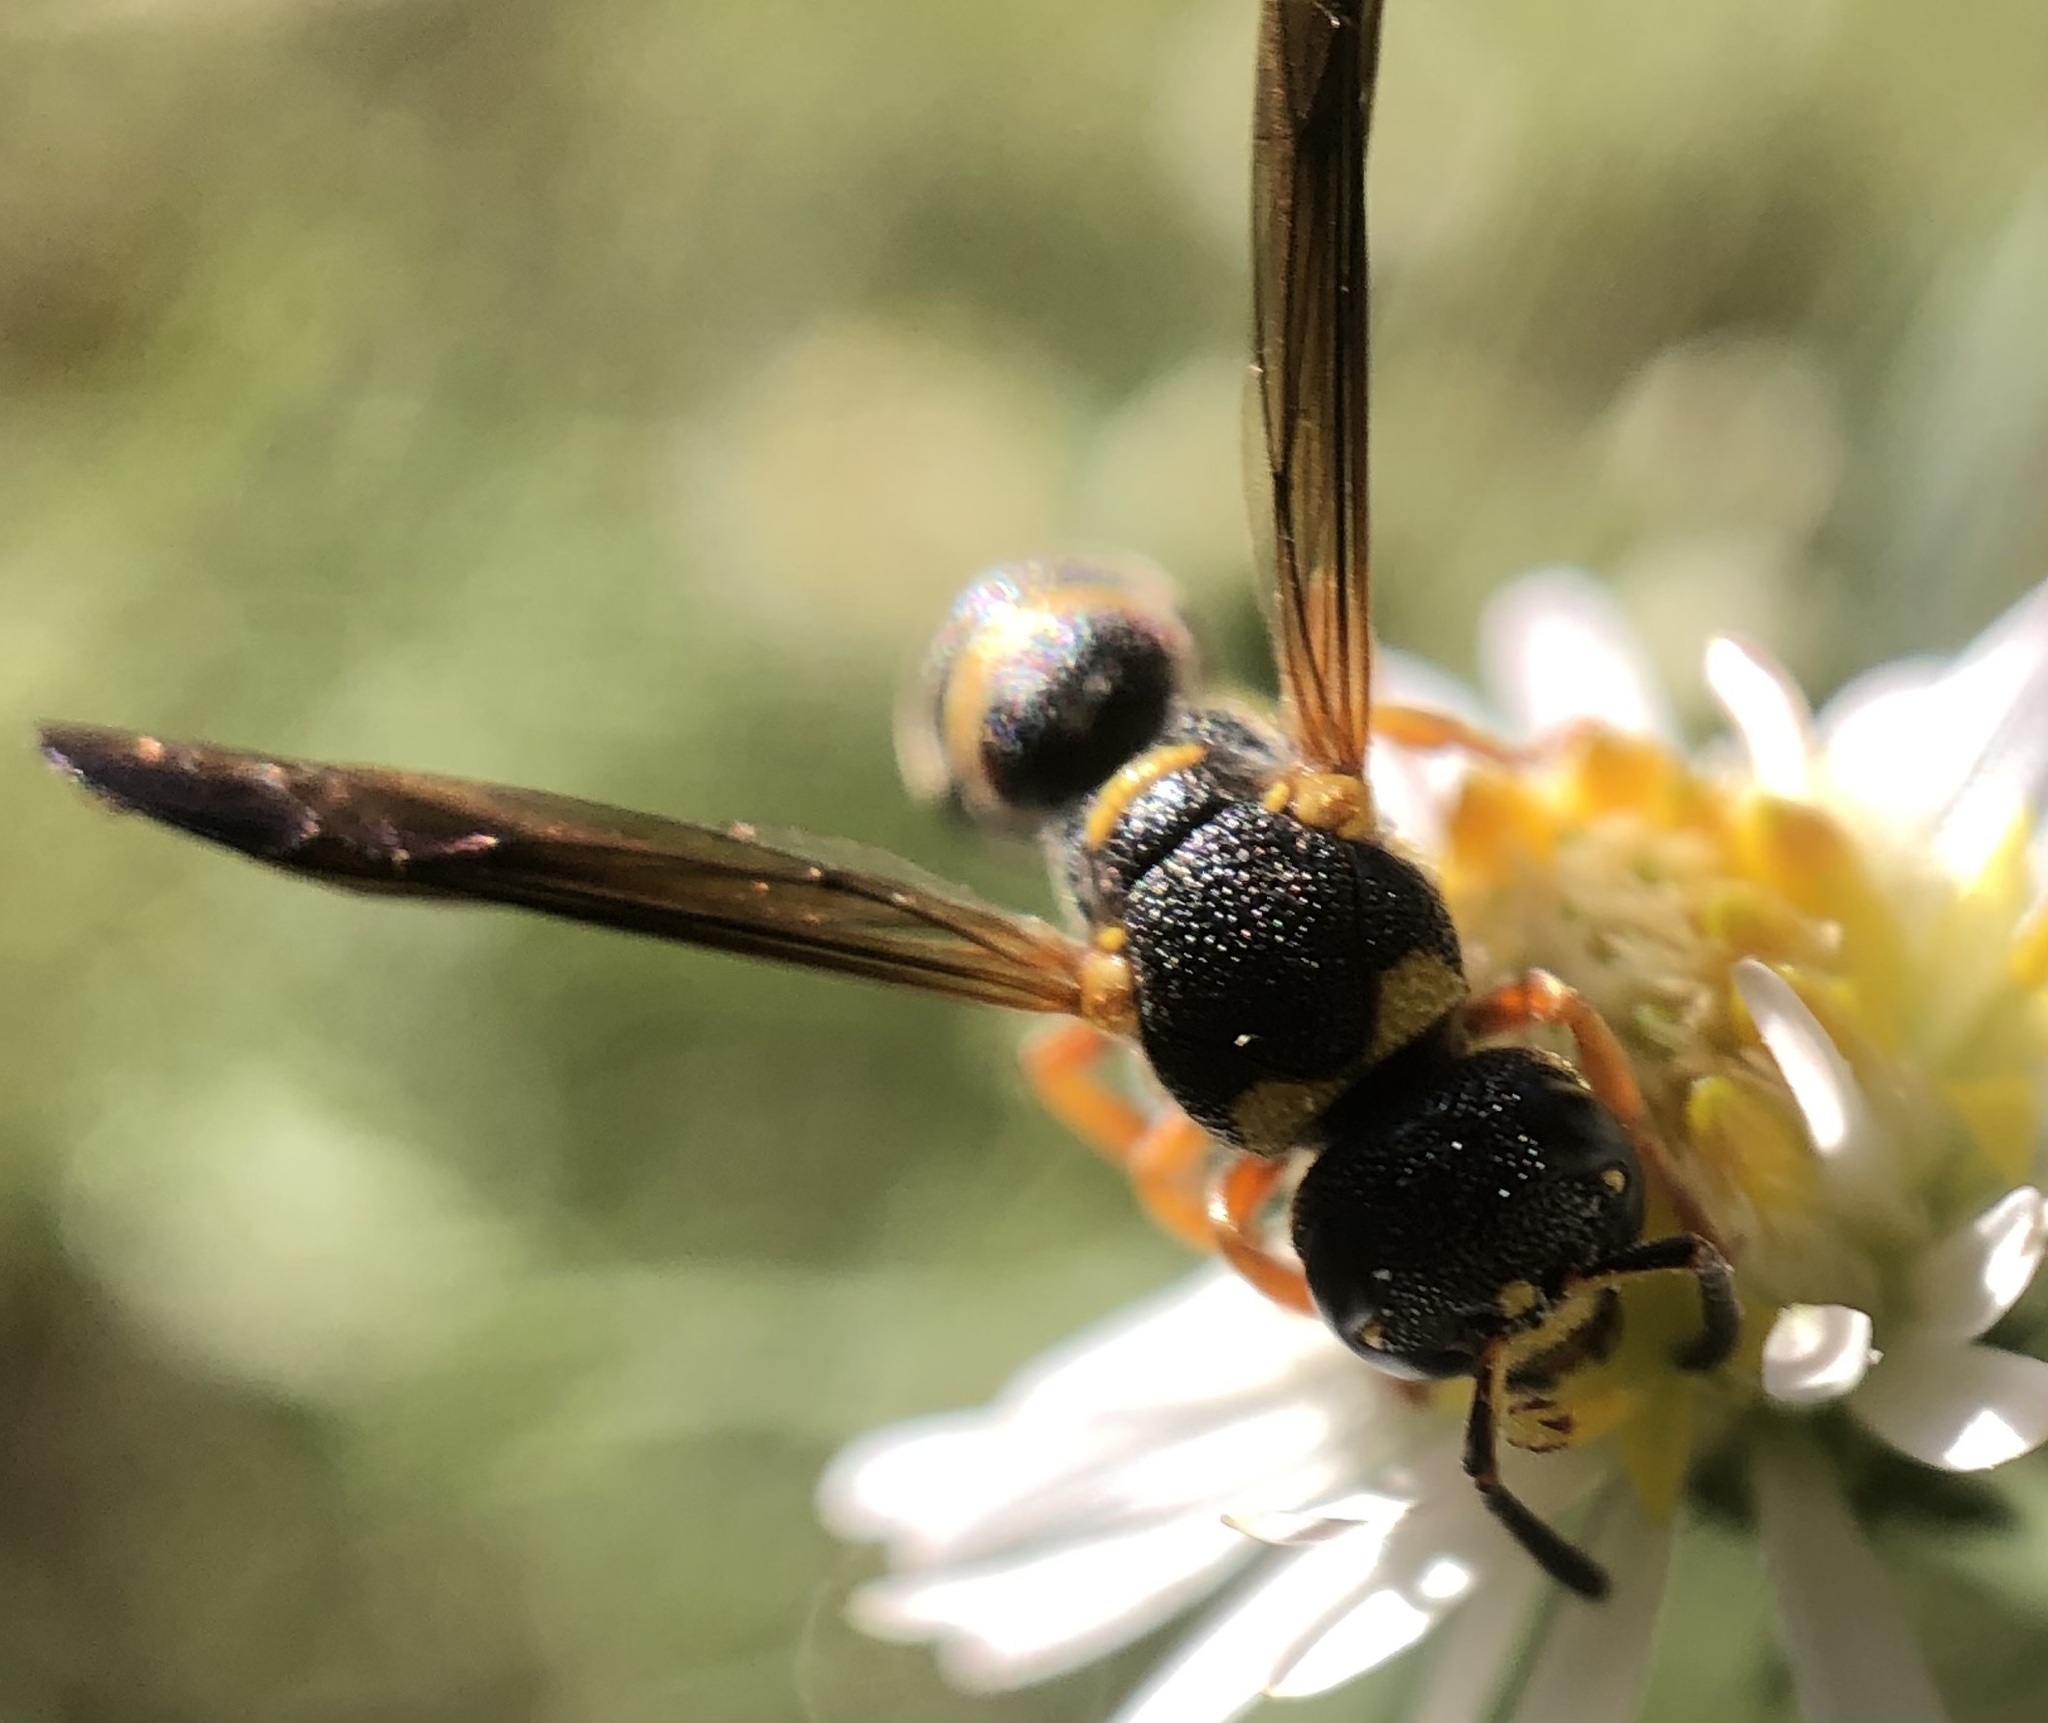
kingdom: Animalia
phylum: Arthropoda
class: Insecta
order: Hymenoptera
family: Eumenidae
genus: Parancistrocerus
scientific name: Parancistrocerus perennis
